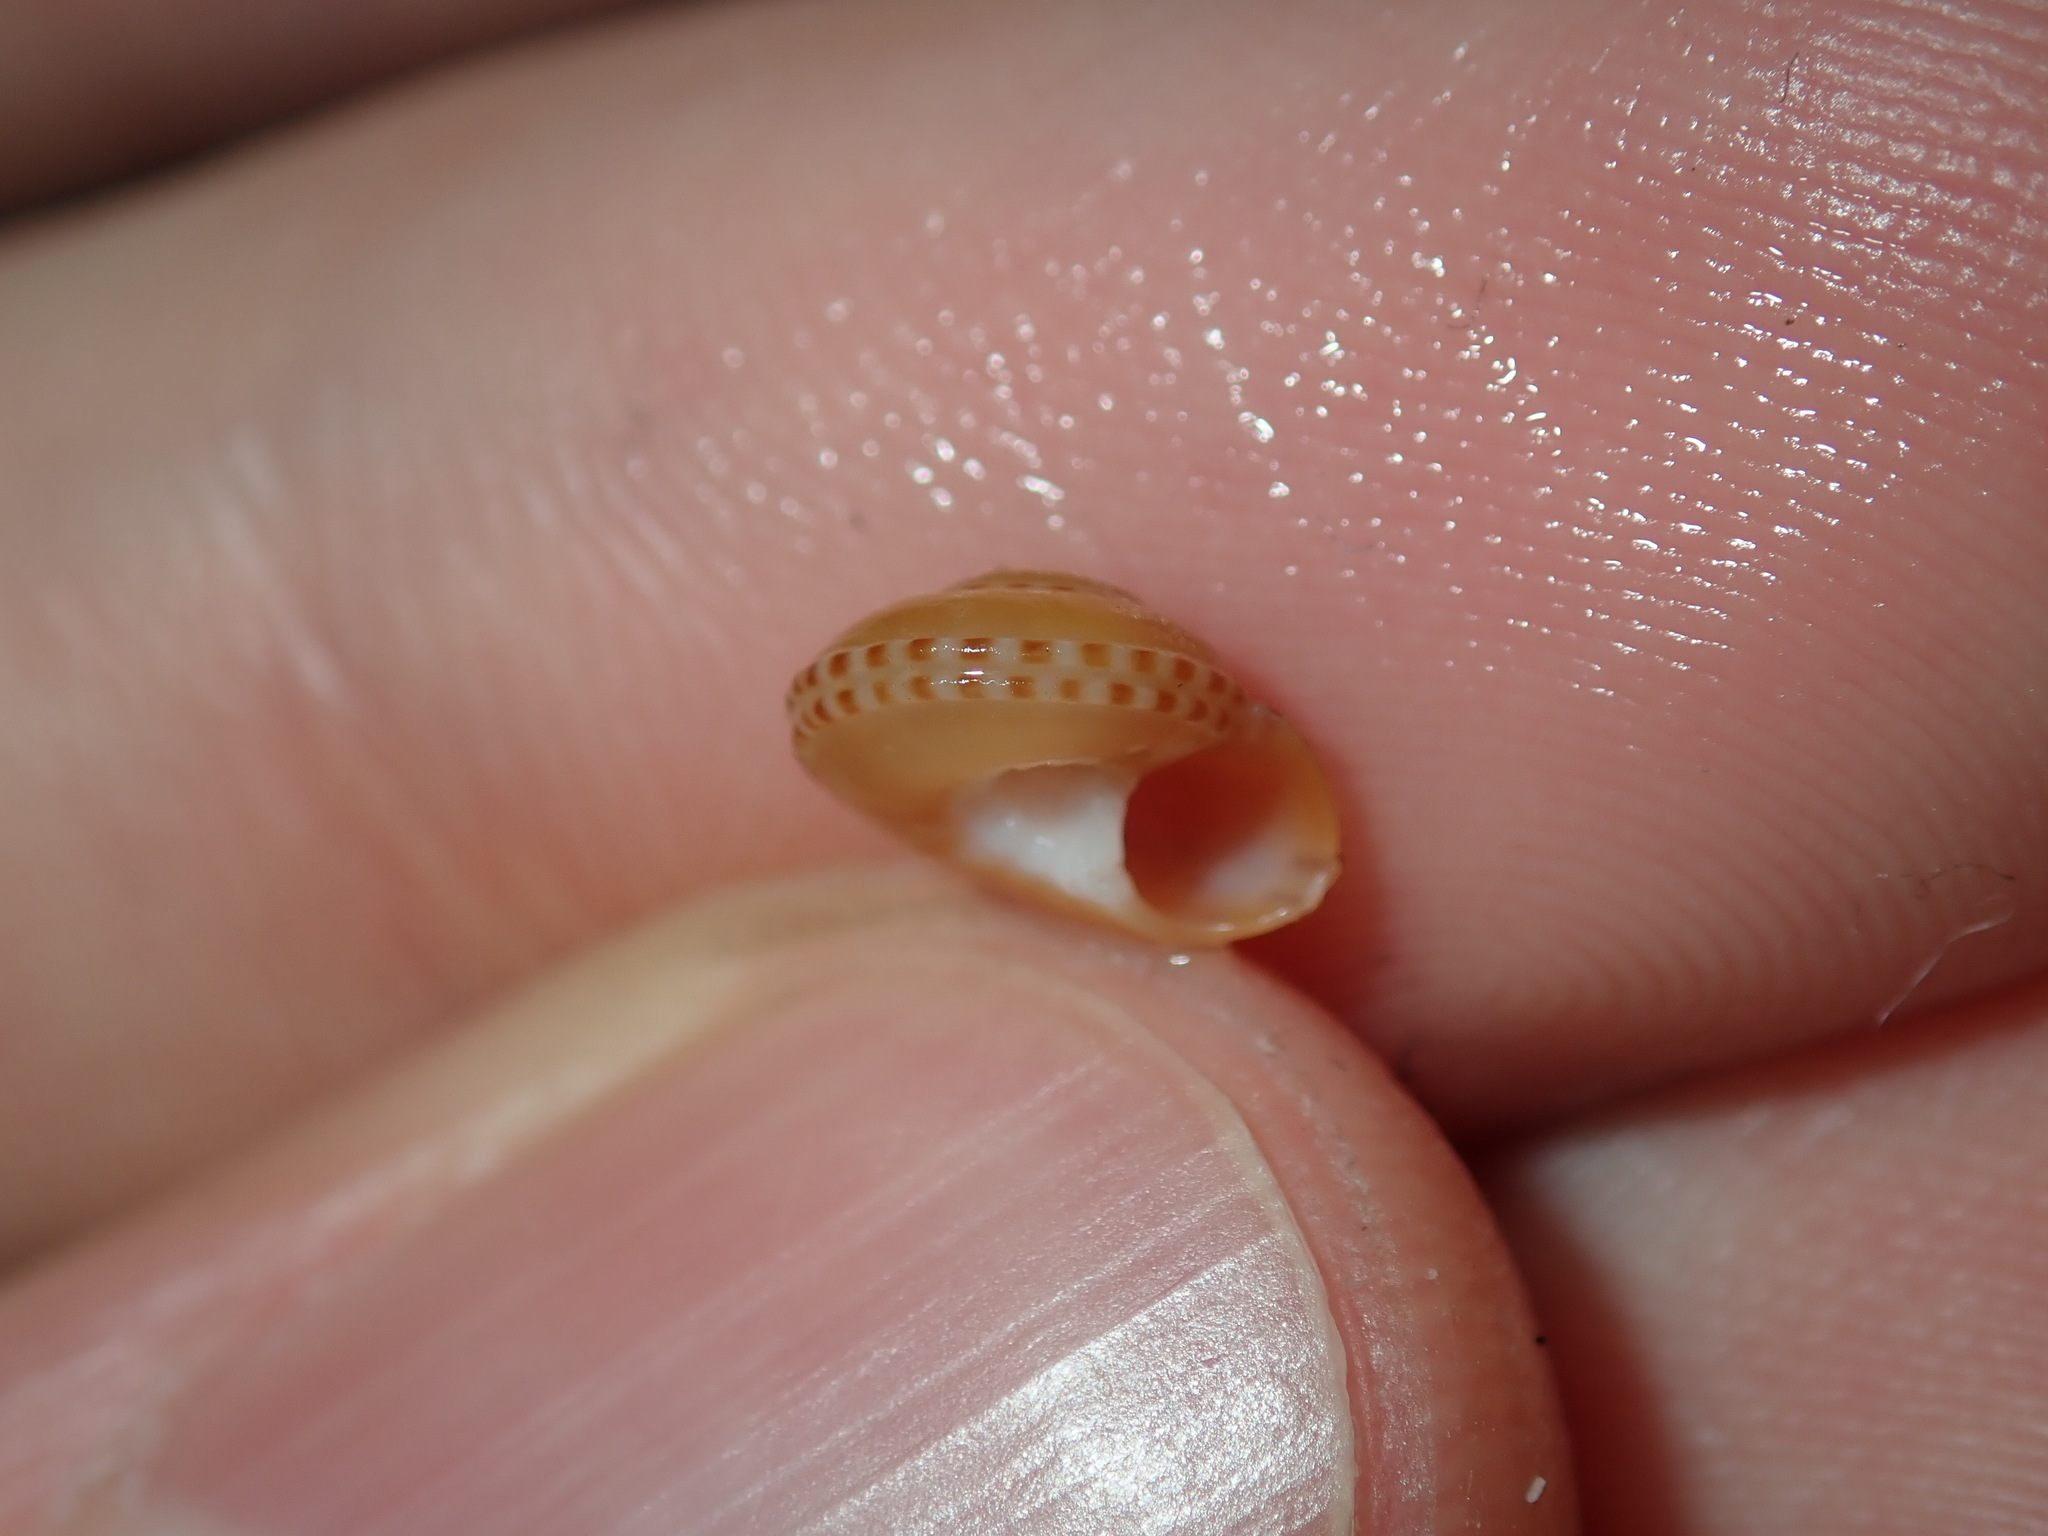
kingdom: Animalia
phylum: Mollusca
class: Gastropoda
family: Architectonicidae
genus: Philippia
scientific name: Philippia lutea
